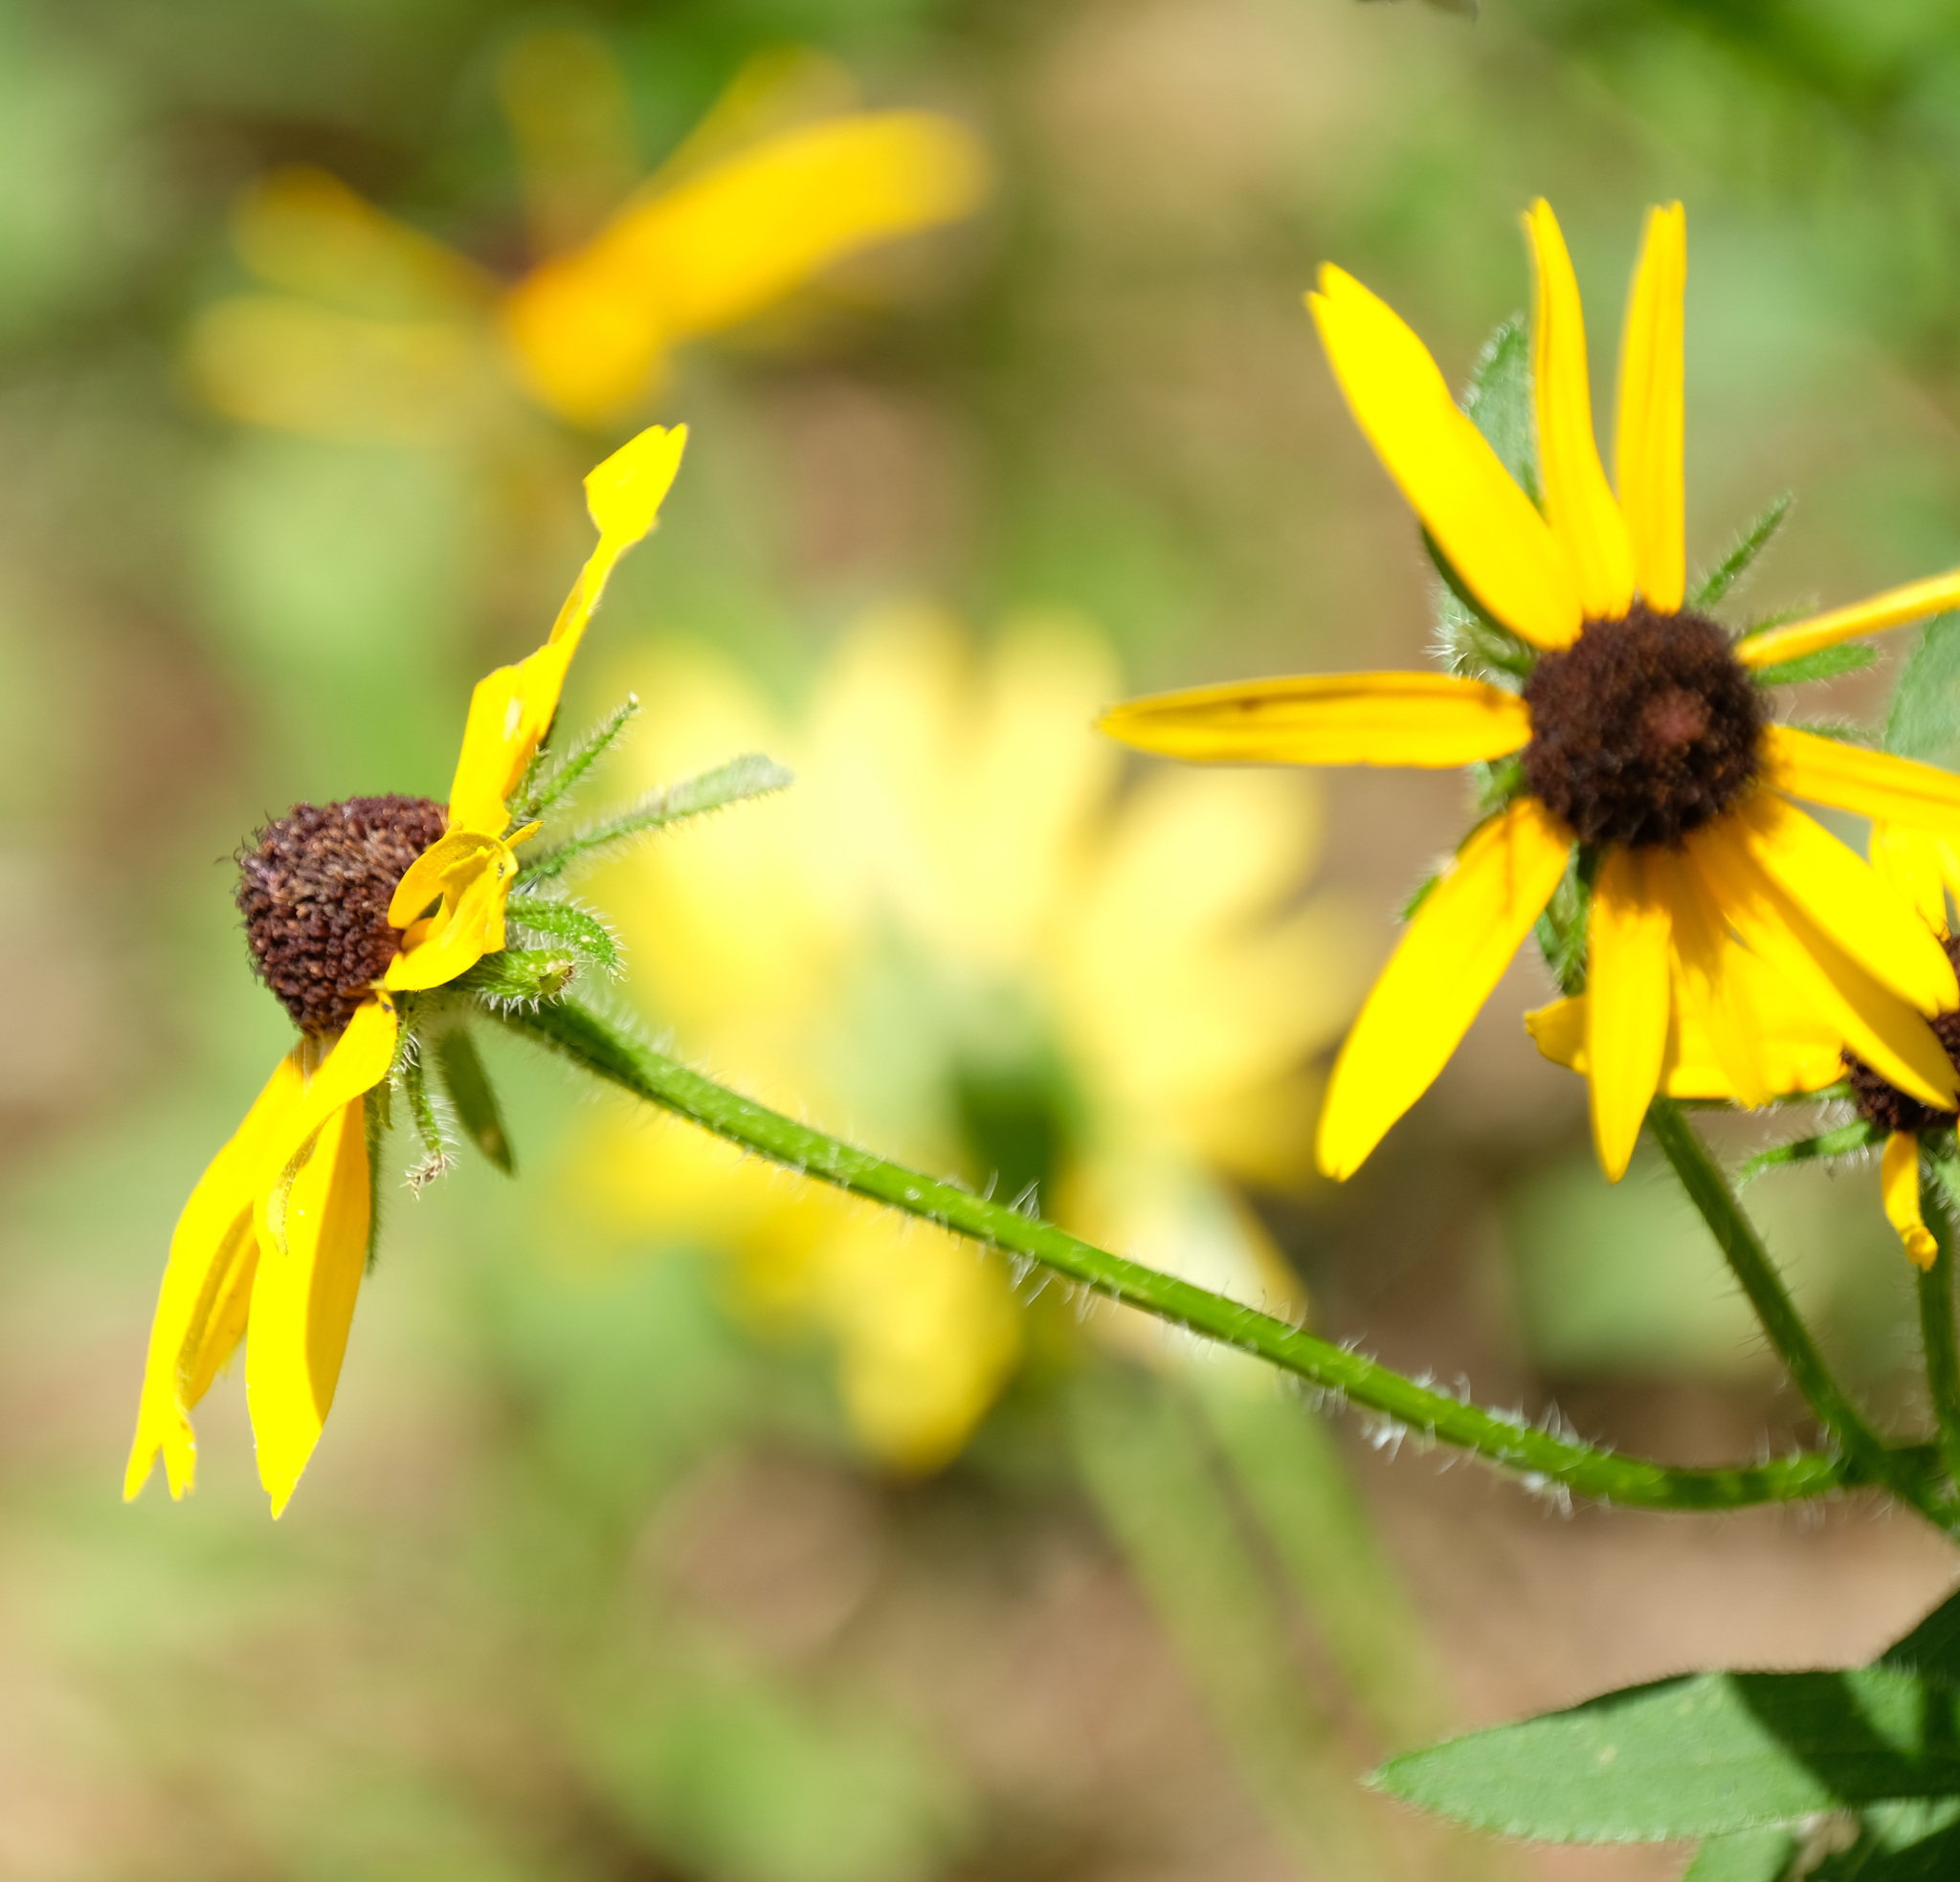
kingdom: Plantae
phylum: Tracheophyta
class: Magnoliopsida
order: Asterales
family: Asteraceae
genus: Rudbeckia
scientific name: Rudbeckia hirta
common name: Black-eyed-susan
